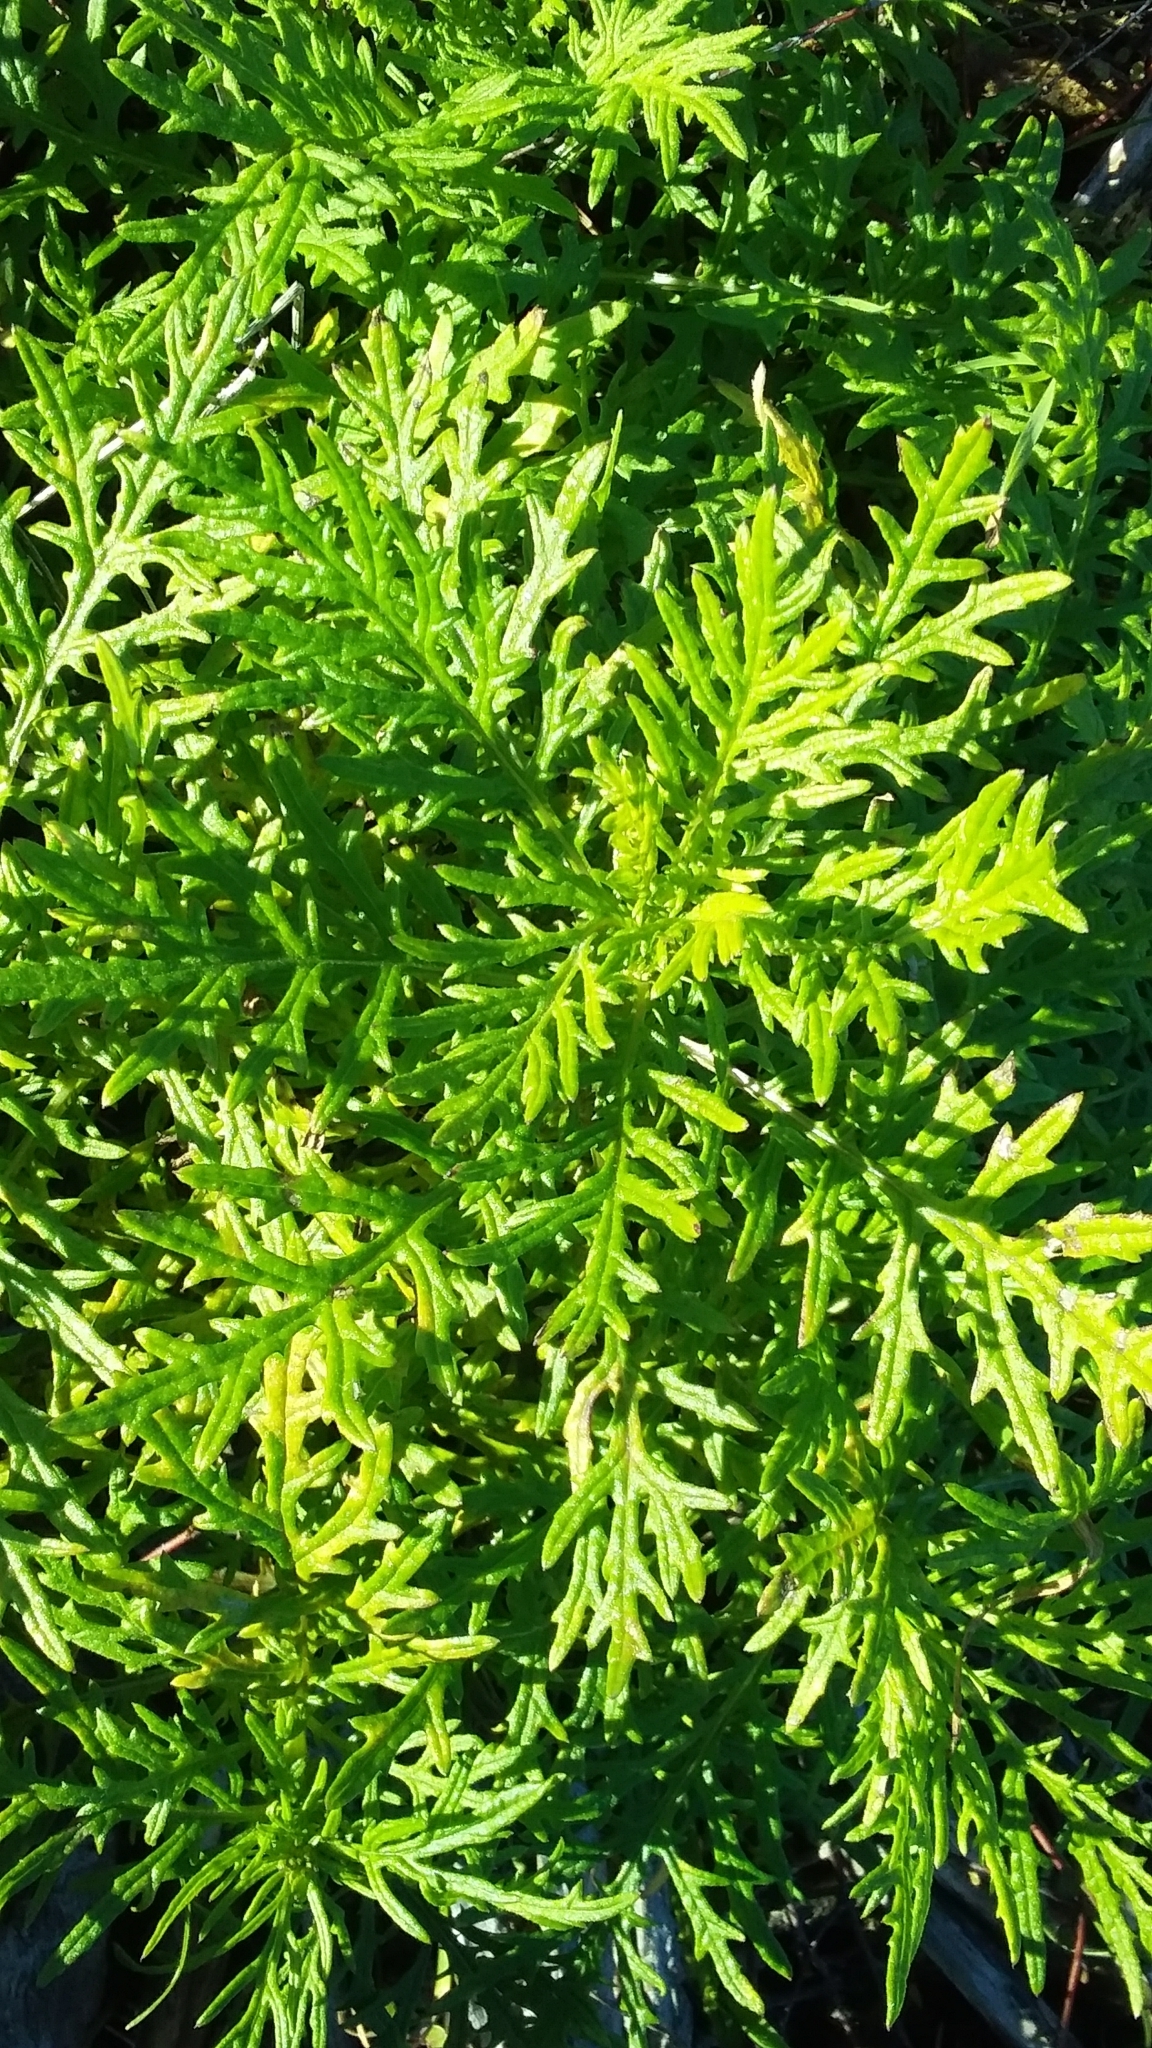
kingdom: Plantae
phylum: Tracheophyta
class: Magnoliopsida
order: Asterales
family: Asteraceae
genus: Senecio
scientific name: Senecio bipinnatisectus
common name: Australian fireweed
